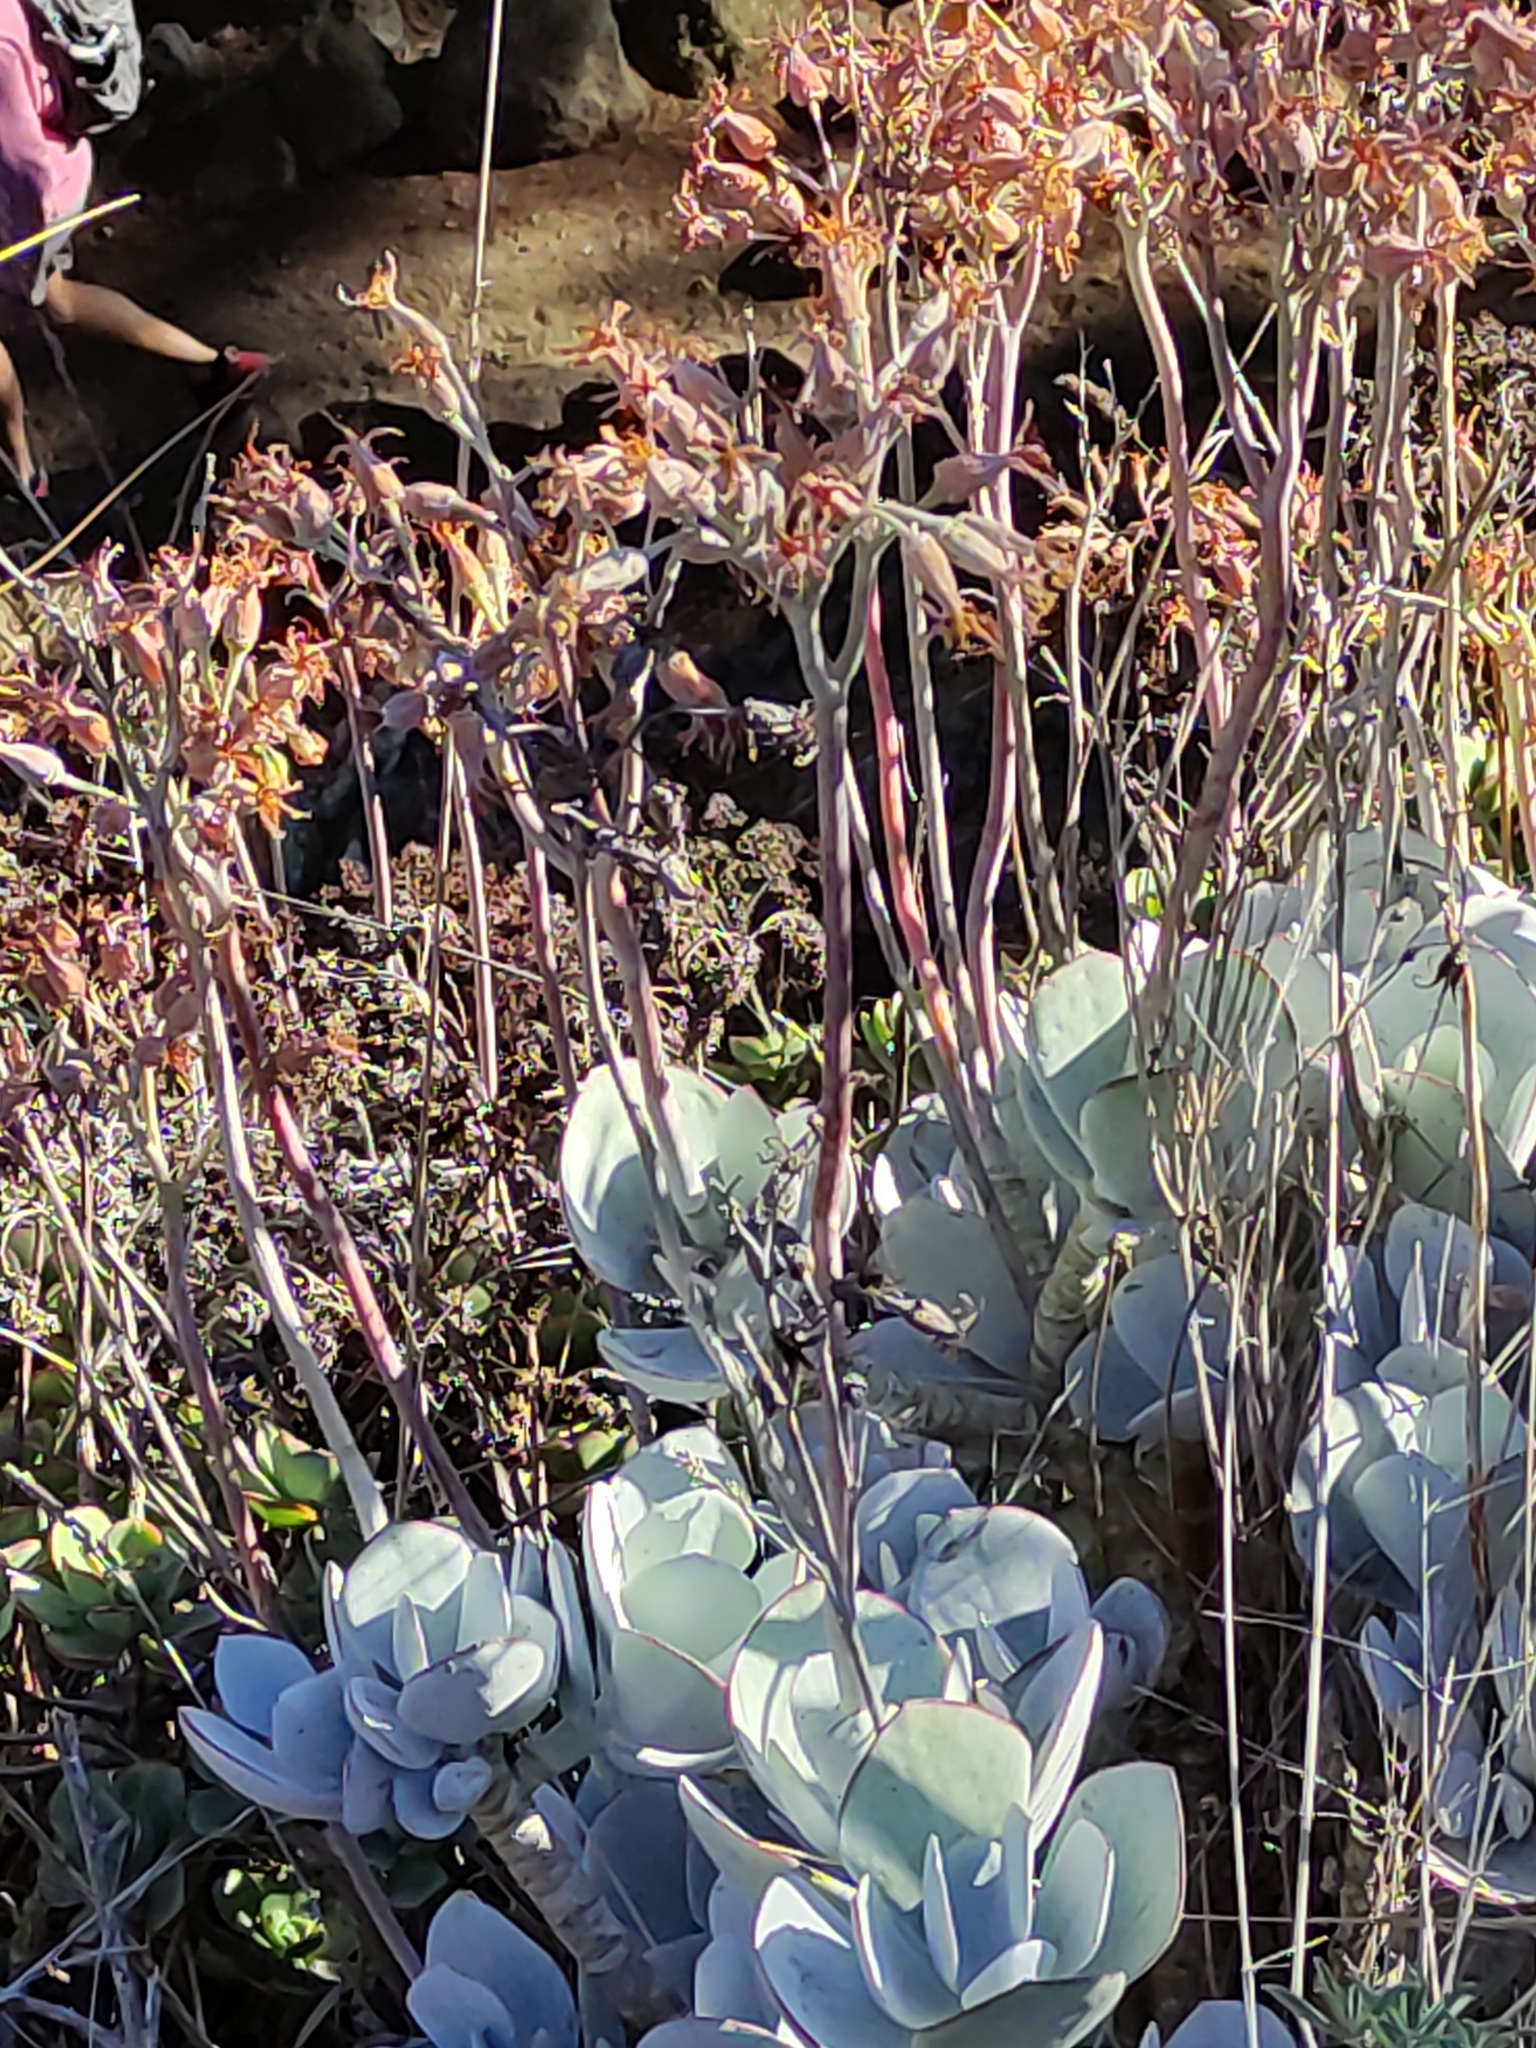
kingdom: Plantae
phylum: Tracheophyta
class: Magnoliopsida
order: Saxifragales
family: Crassulaceae
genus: Cotyledon
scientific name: Cotyledon orbiculata
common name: Pig's ear
